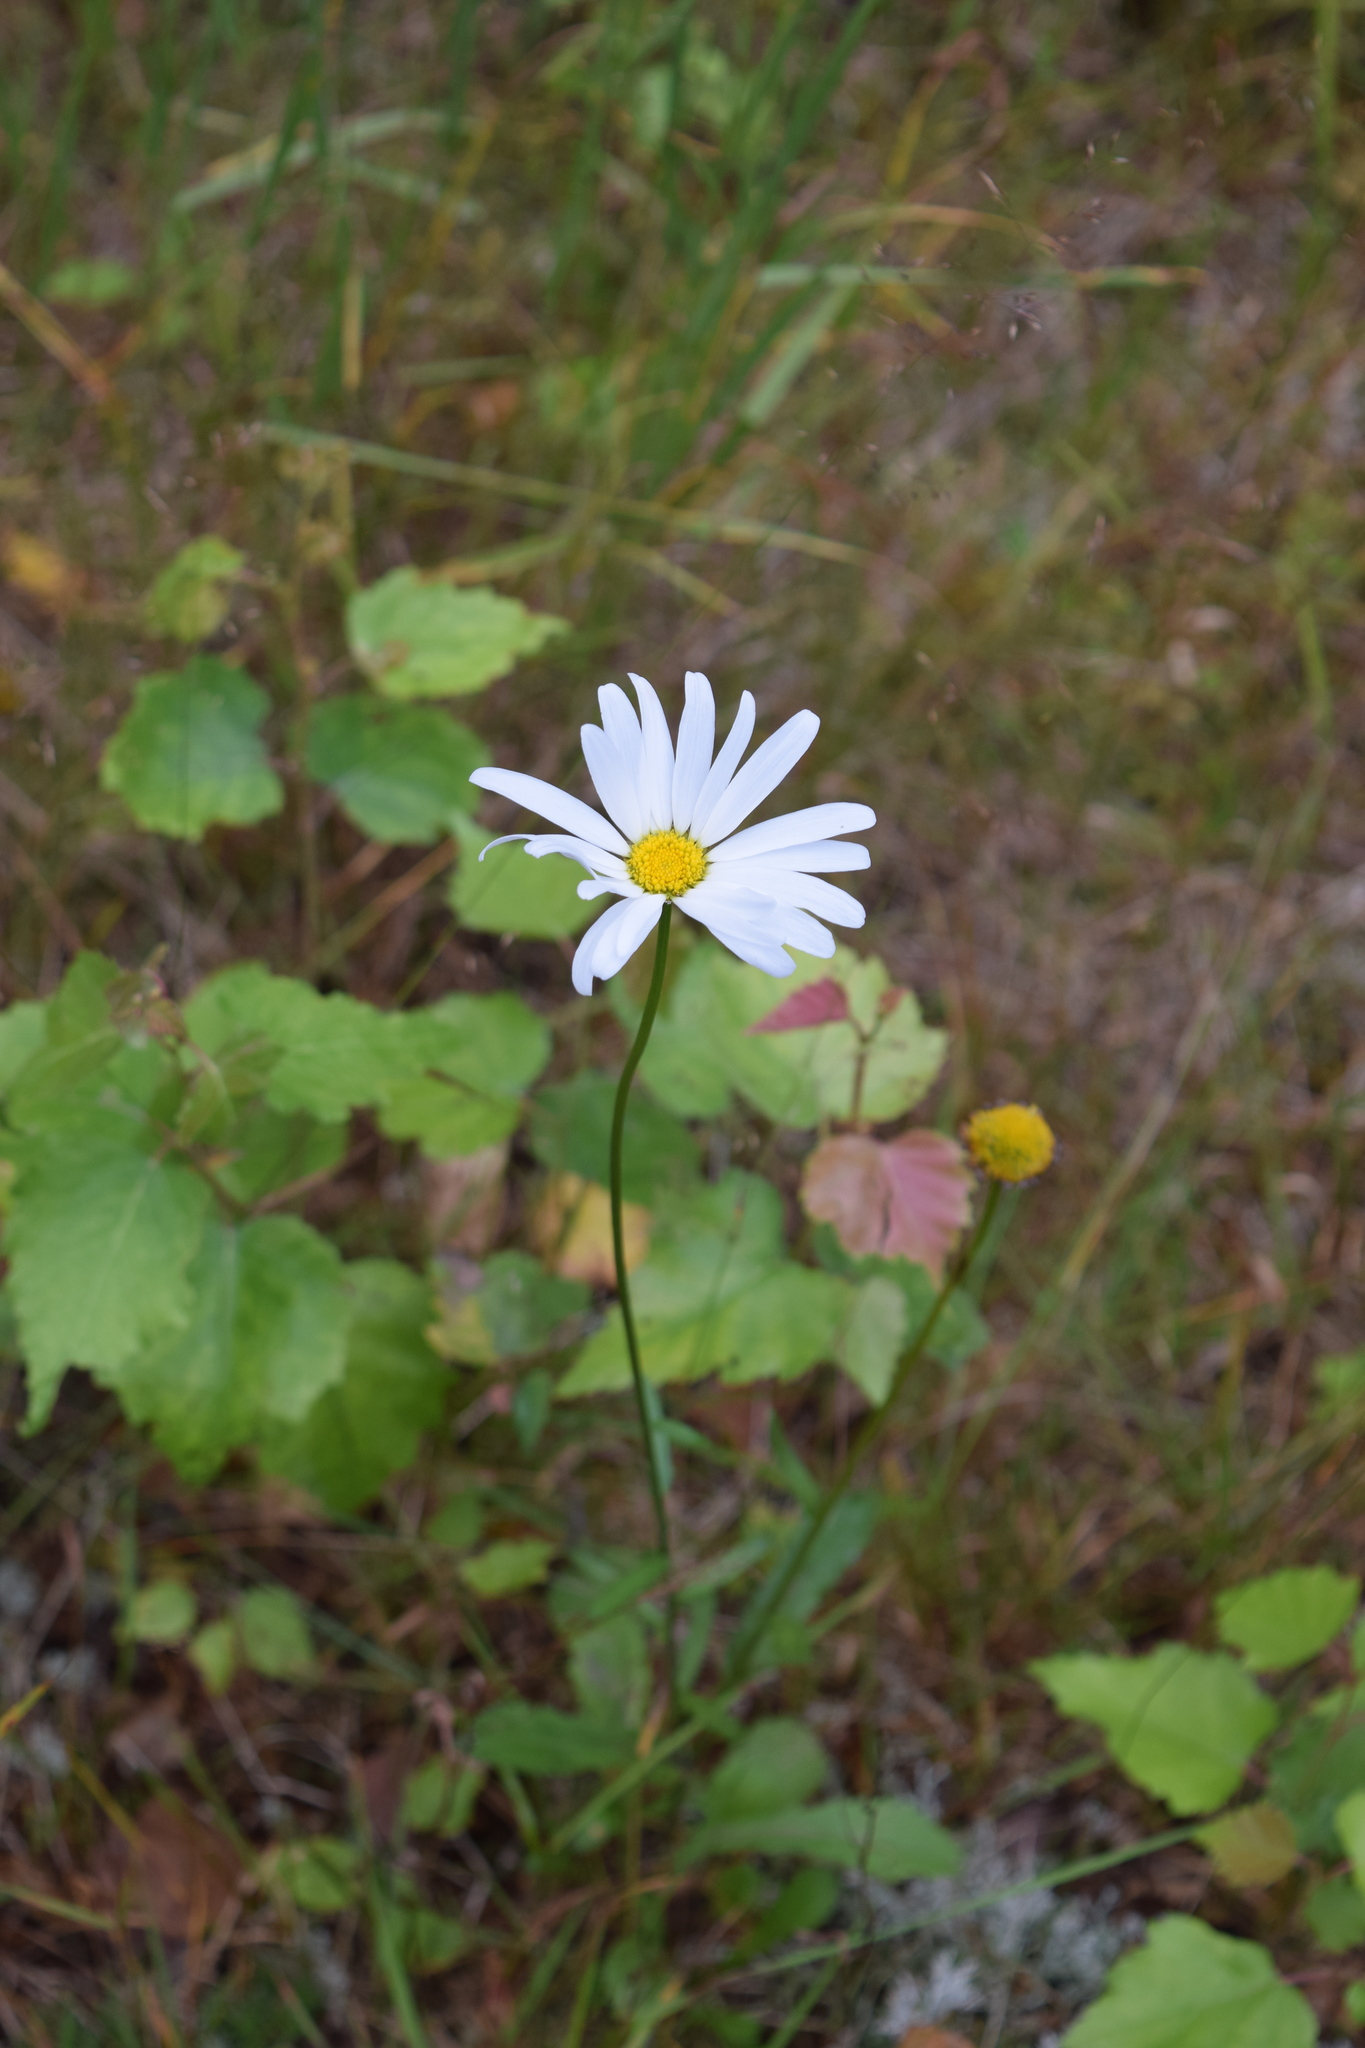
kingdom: Plantae
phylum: Tracheophyta
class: Magnoliopsida
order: Asterales
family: Asteraceae
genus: Leucanthemum
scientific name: Leucanthemum vulgare
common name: Oxeye daisy
